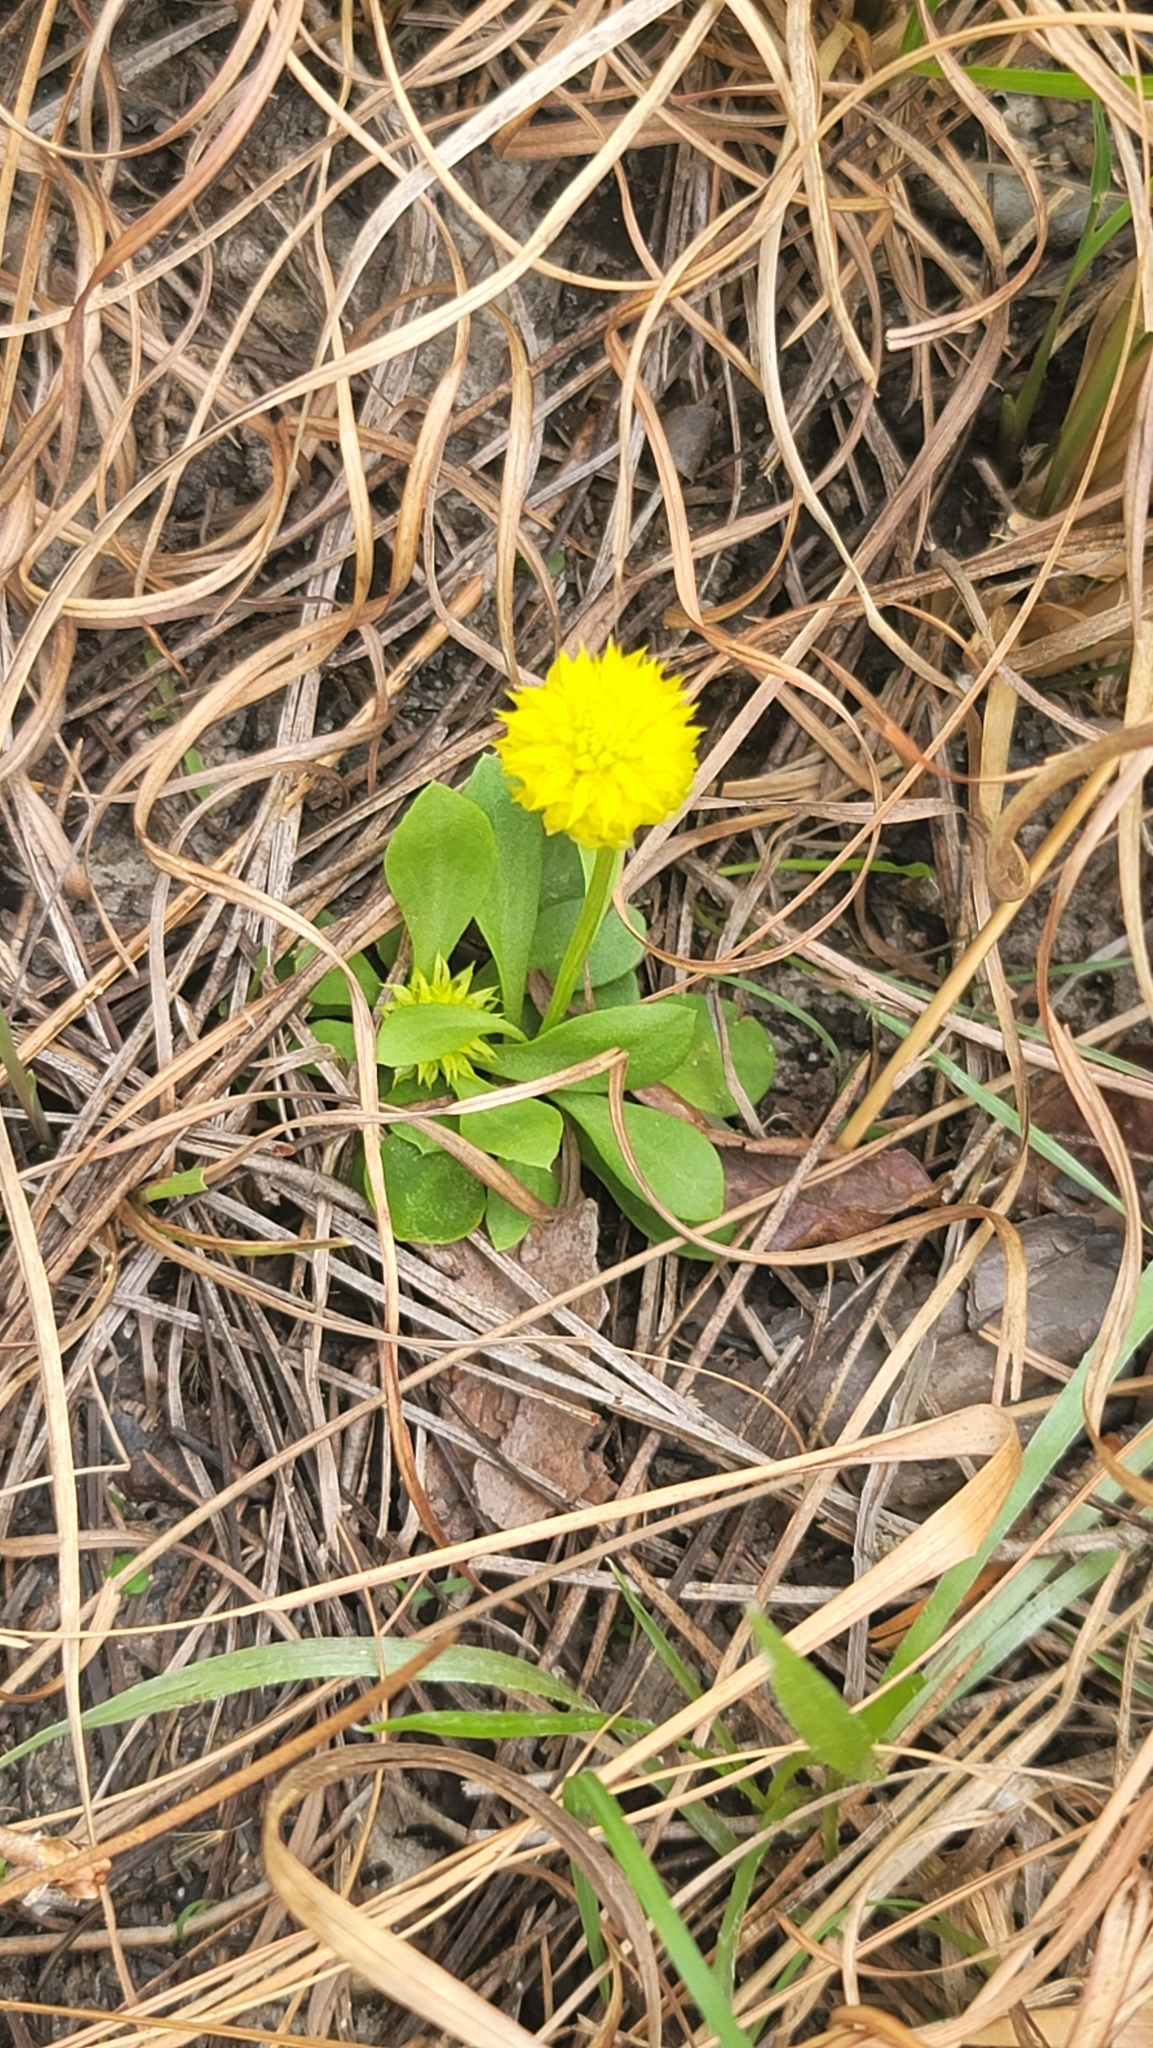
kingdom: Plantae
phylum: Tracheophyta
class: Magnoliopsida
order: Fabales
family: Polygalaceae
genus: Polygala
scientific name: Polygala nana
